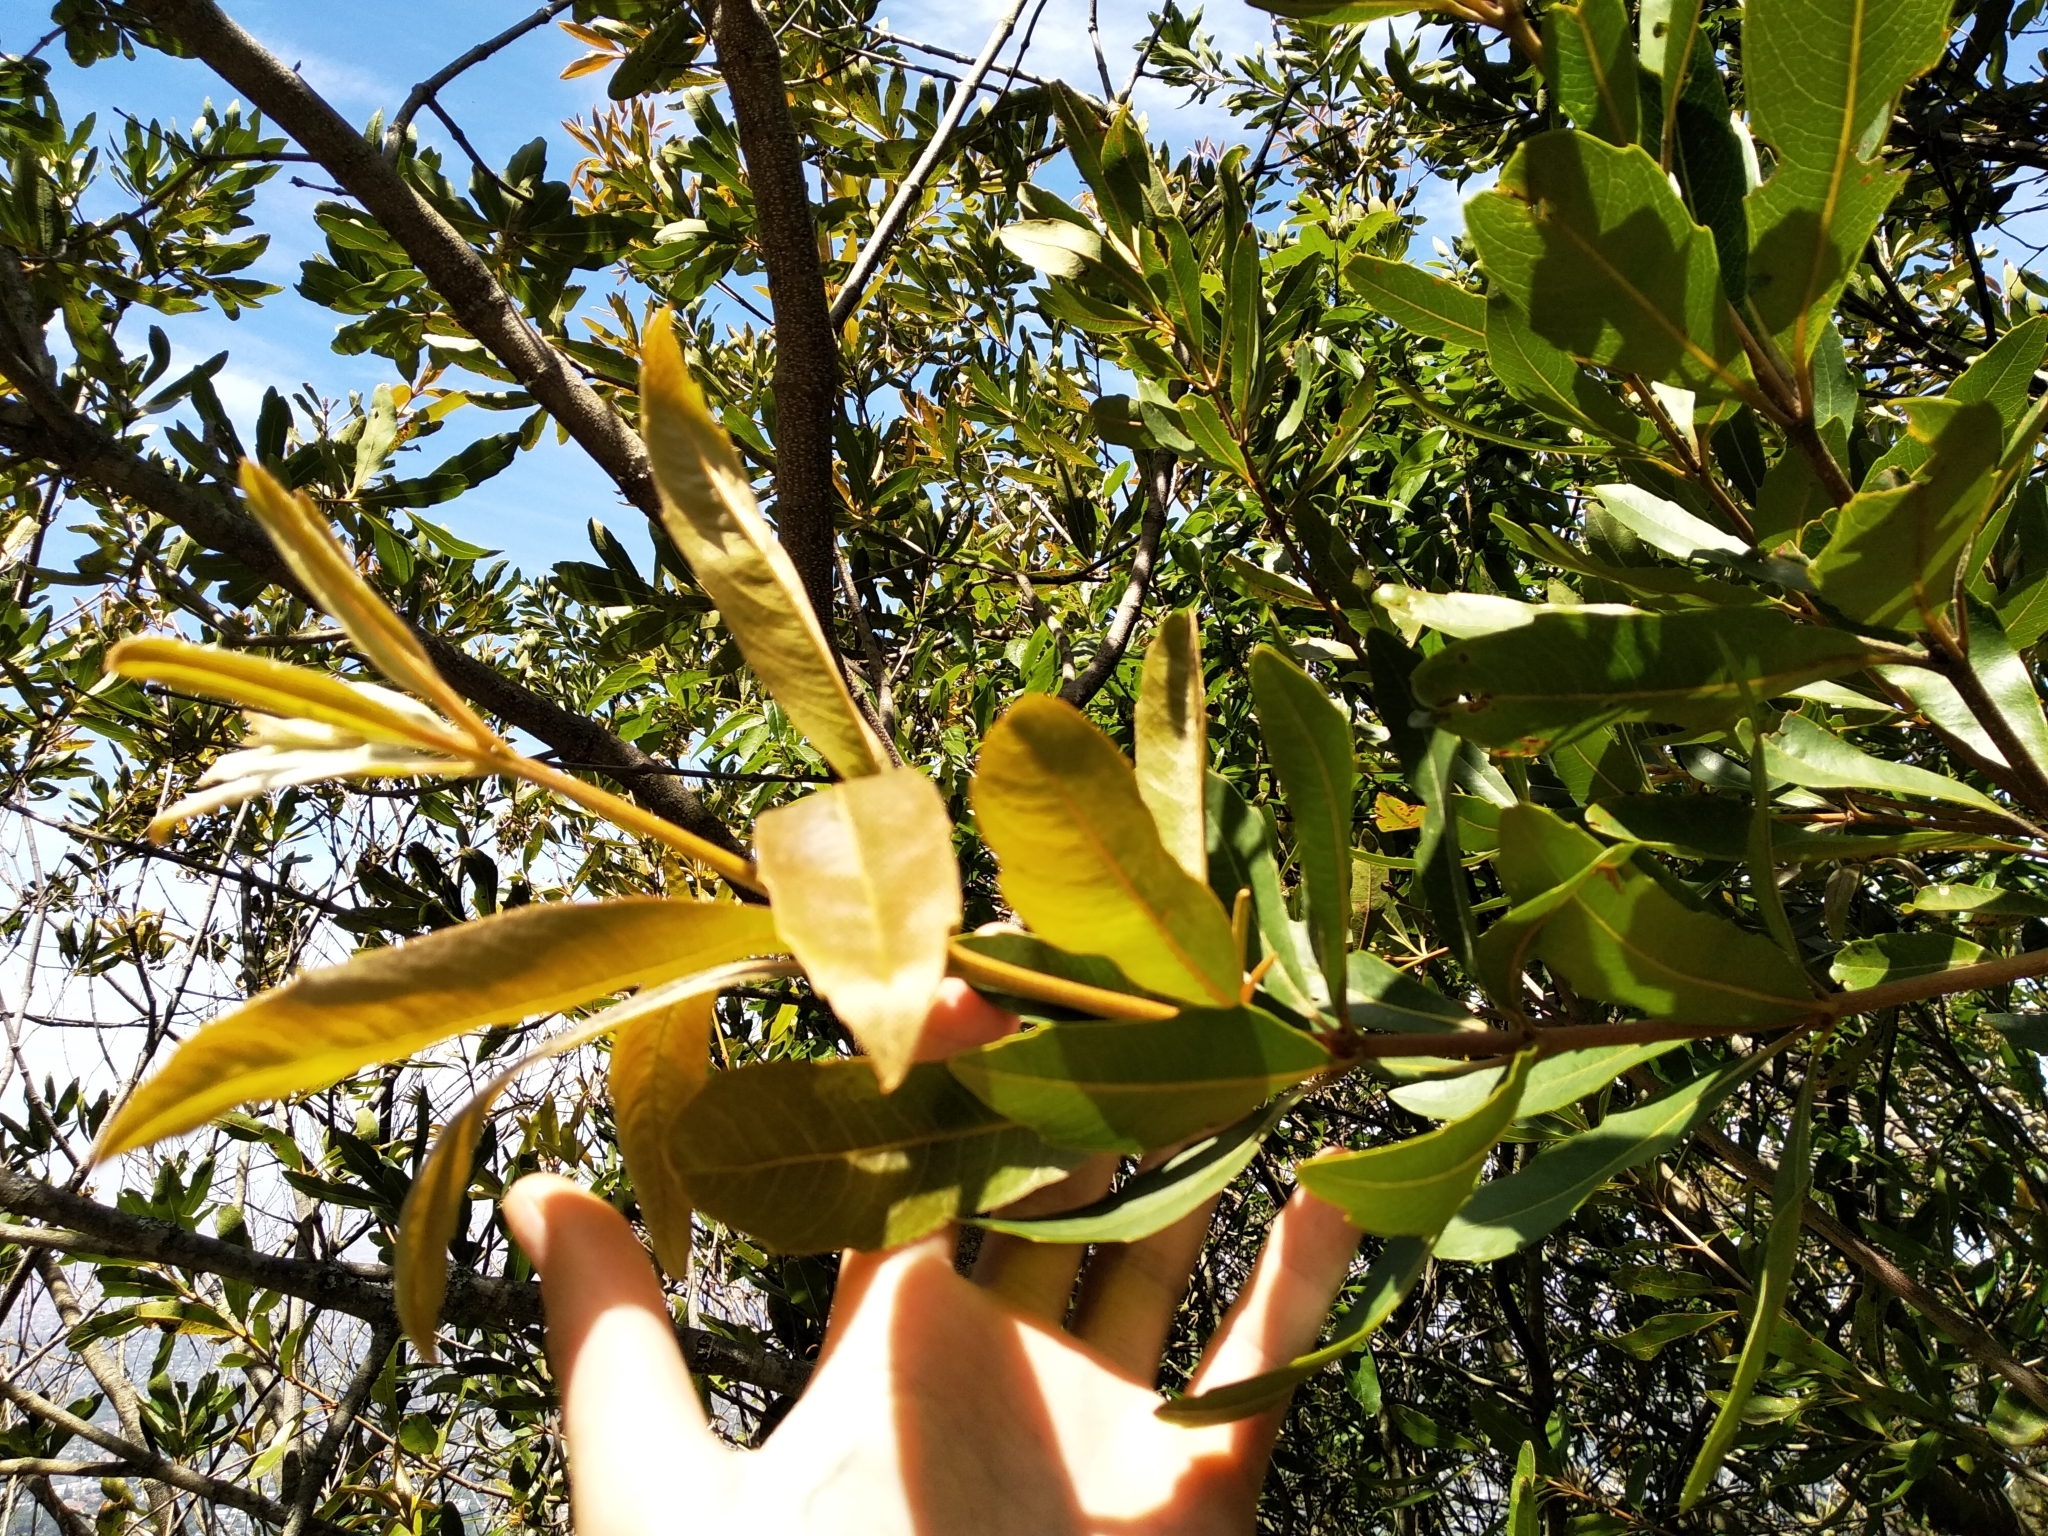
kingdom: Plantae
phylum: Tracheophyta
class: Magnoliopsida
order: Proteales
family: Proteaceae
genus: Brabejum
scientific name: Brabejum stellatifolium
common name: Wild almond
